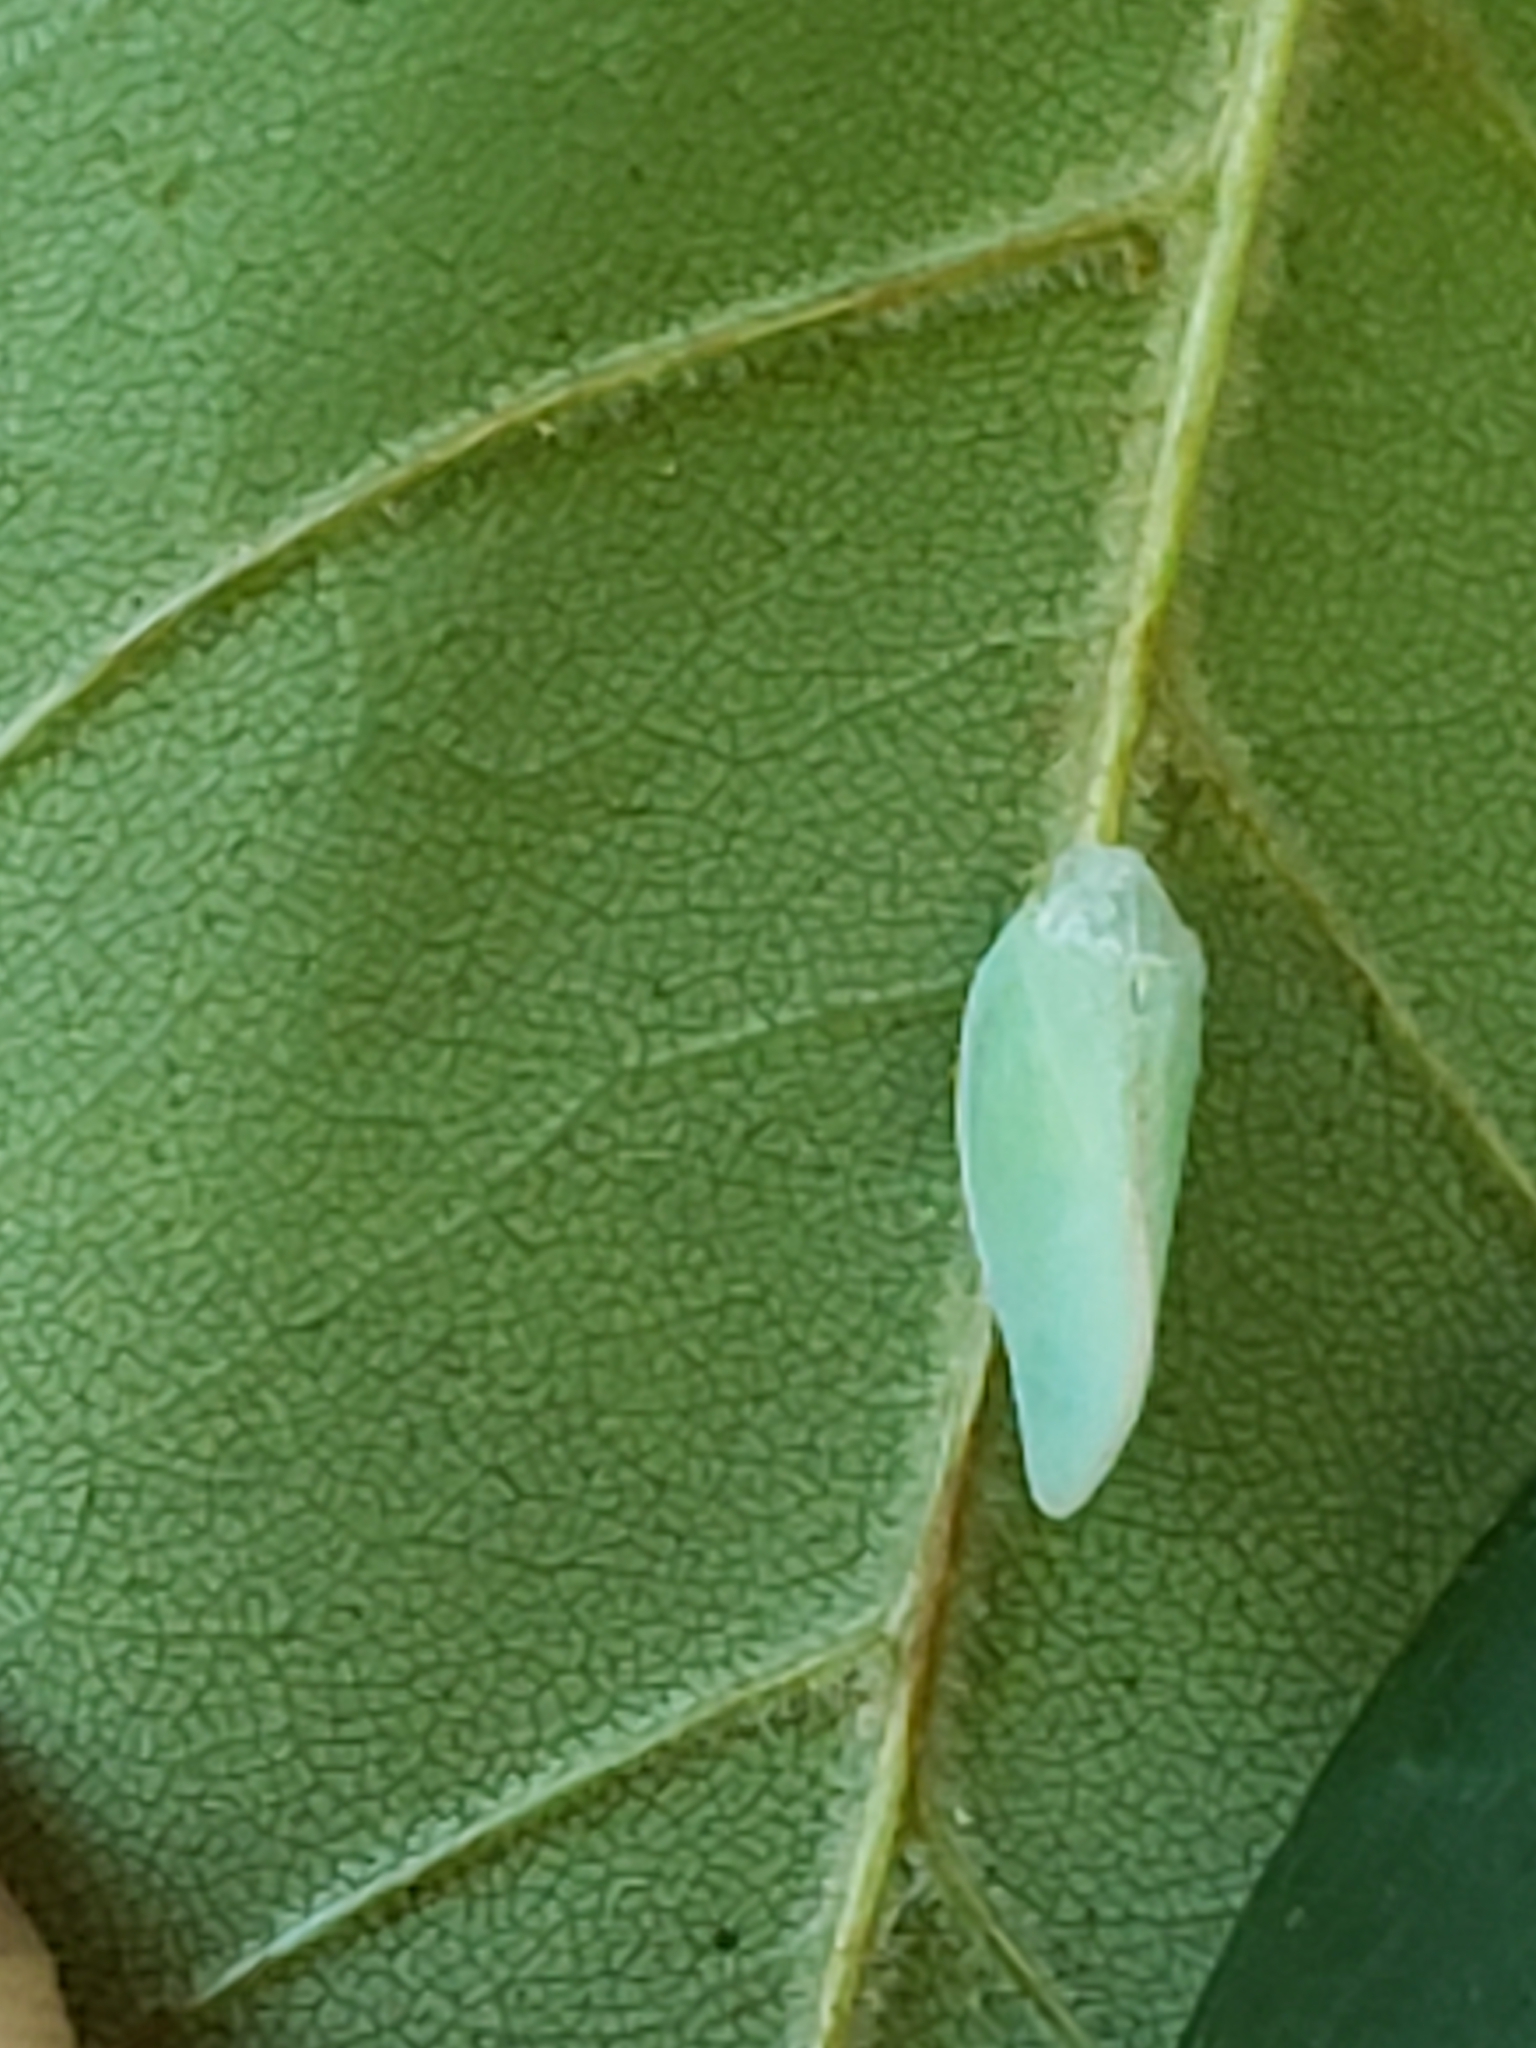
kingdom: Animalia
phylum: Arthropoda
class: Insecta
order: Hemiptera
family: Flatidae
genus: Ormenoides
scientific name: Ormenoides venusta
